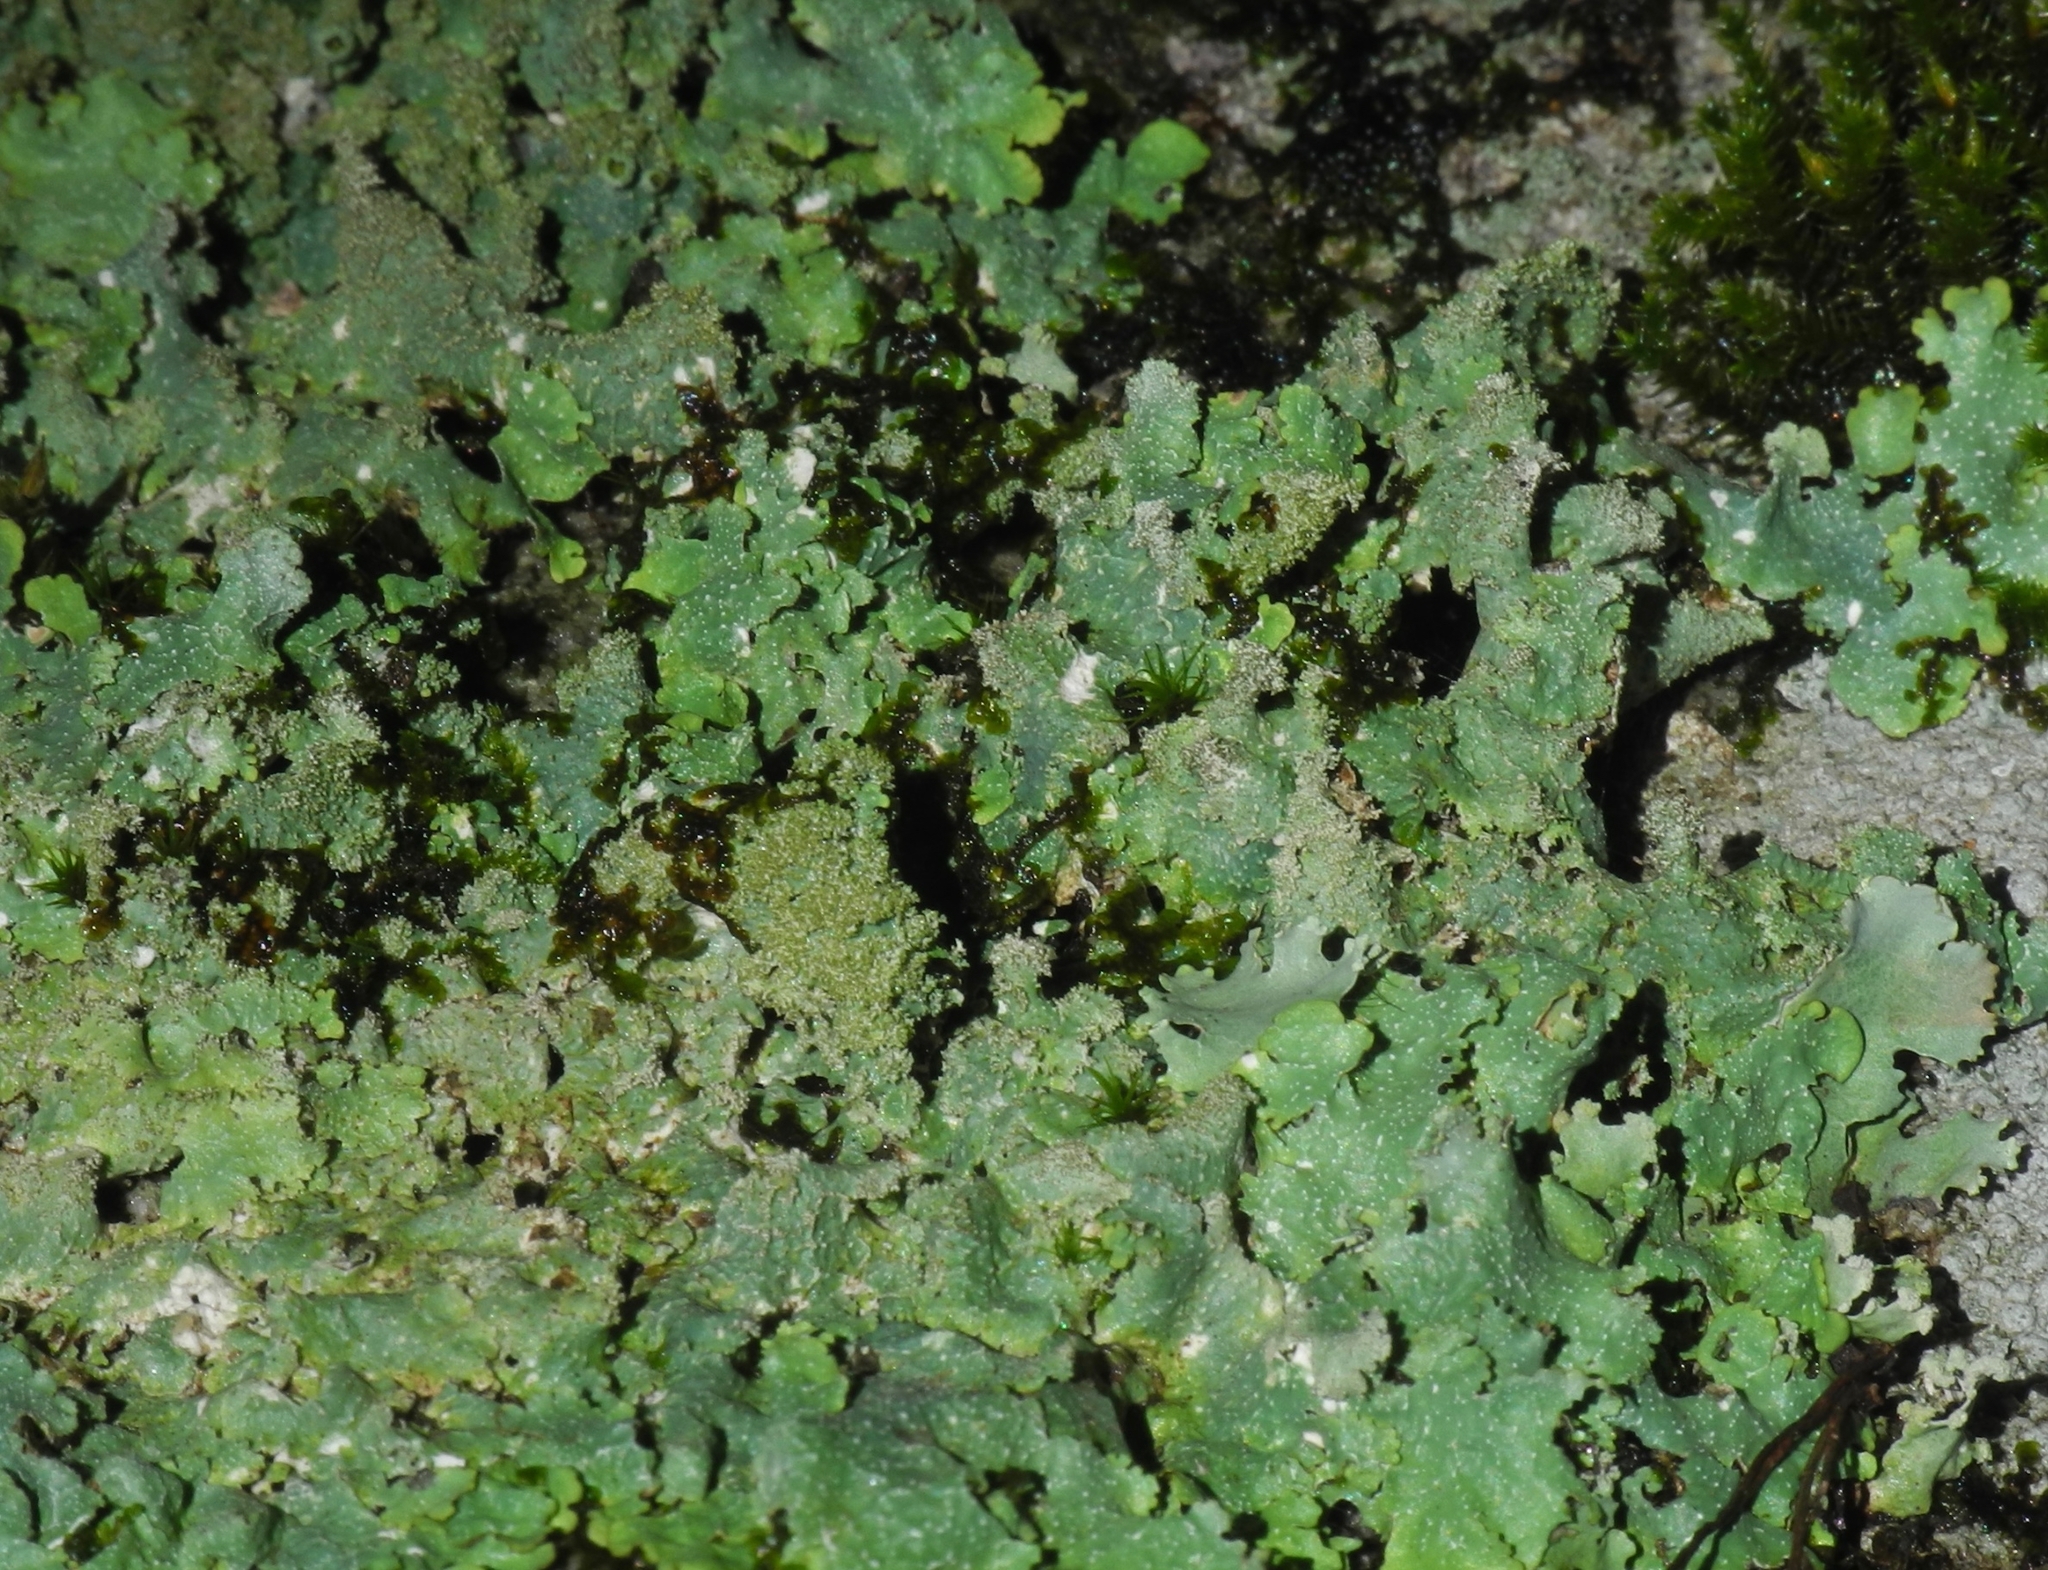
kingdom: Fungi
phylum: Ascomycota
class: Lecanoromycetes
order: Lecanorales
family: Parmeliaceae
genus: Punctelia
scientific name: Punctelia rudecta
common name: Rough speckled shield lichen
